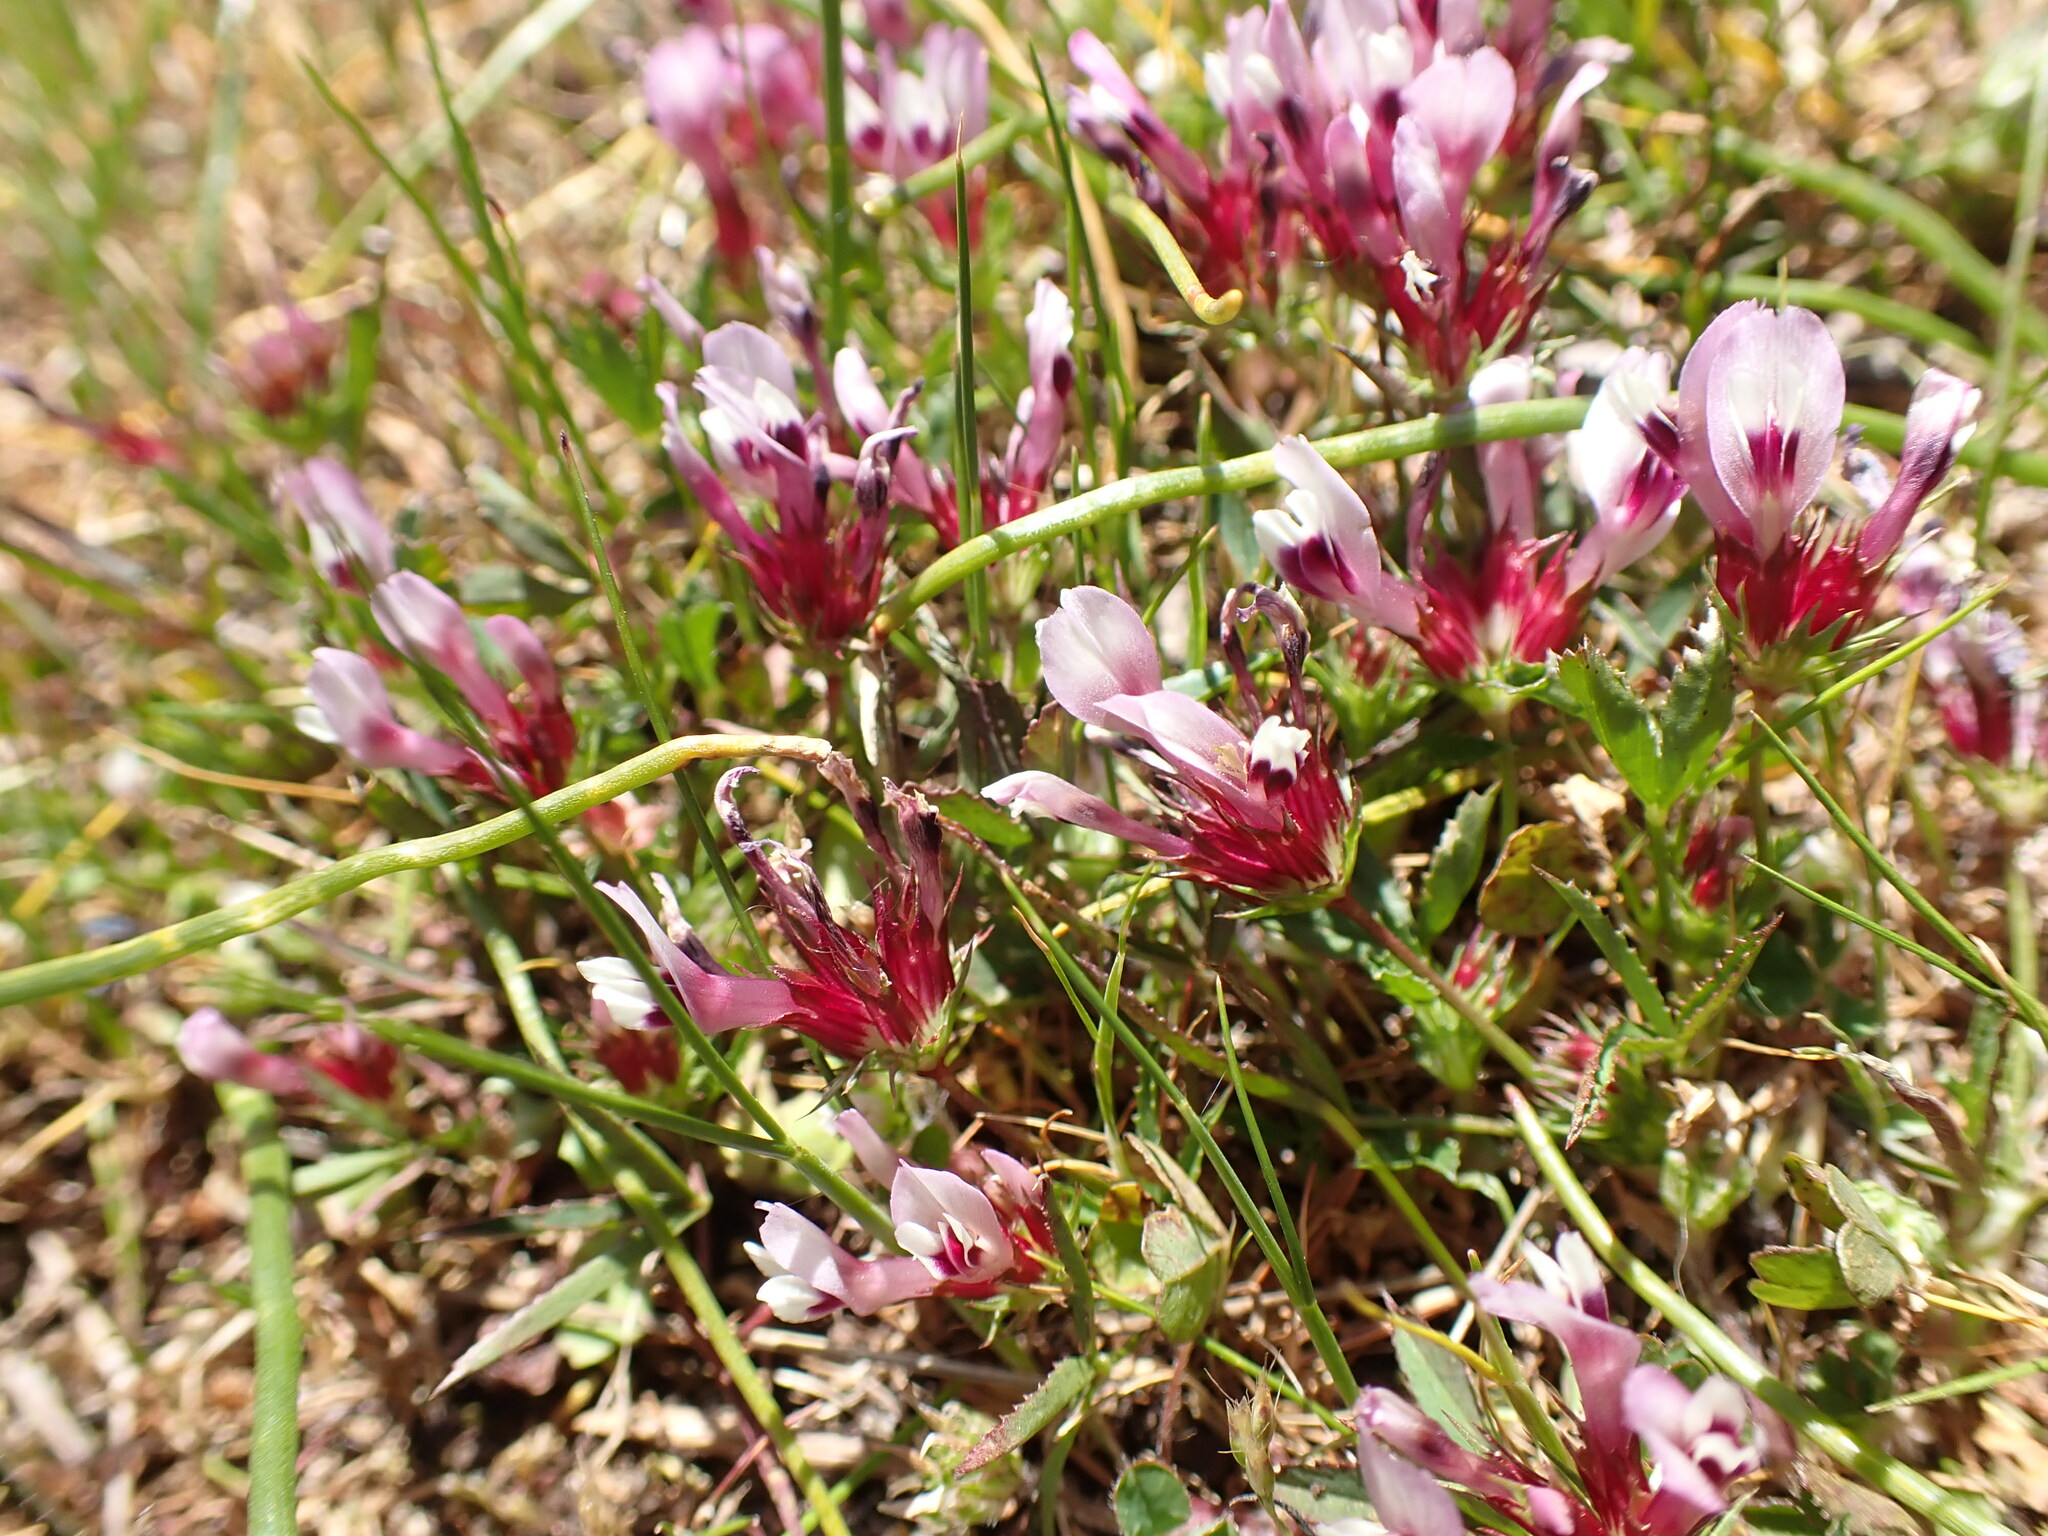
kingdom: Plantae
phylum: Tracheophyta
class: Magnoliopsida
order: Fabales
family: Fabaceae
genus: Trifolium
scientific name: Trifolium willdenovii
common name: Tomcat clover
